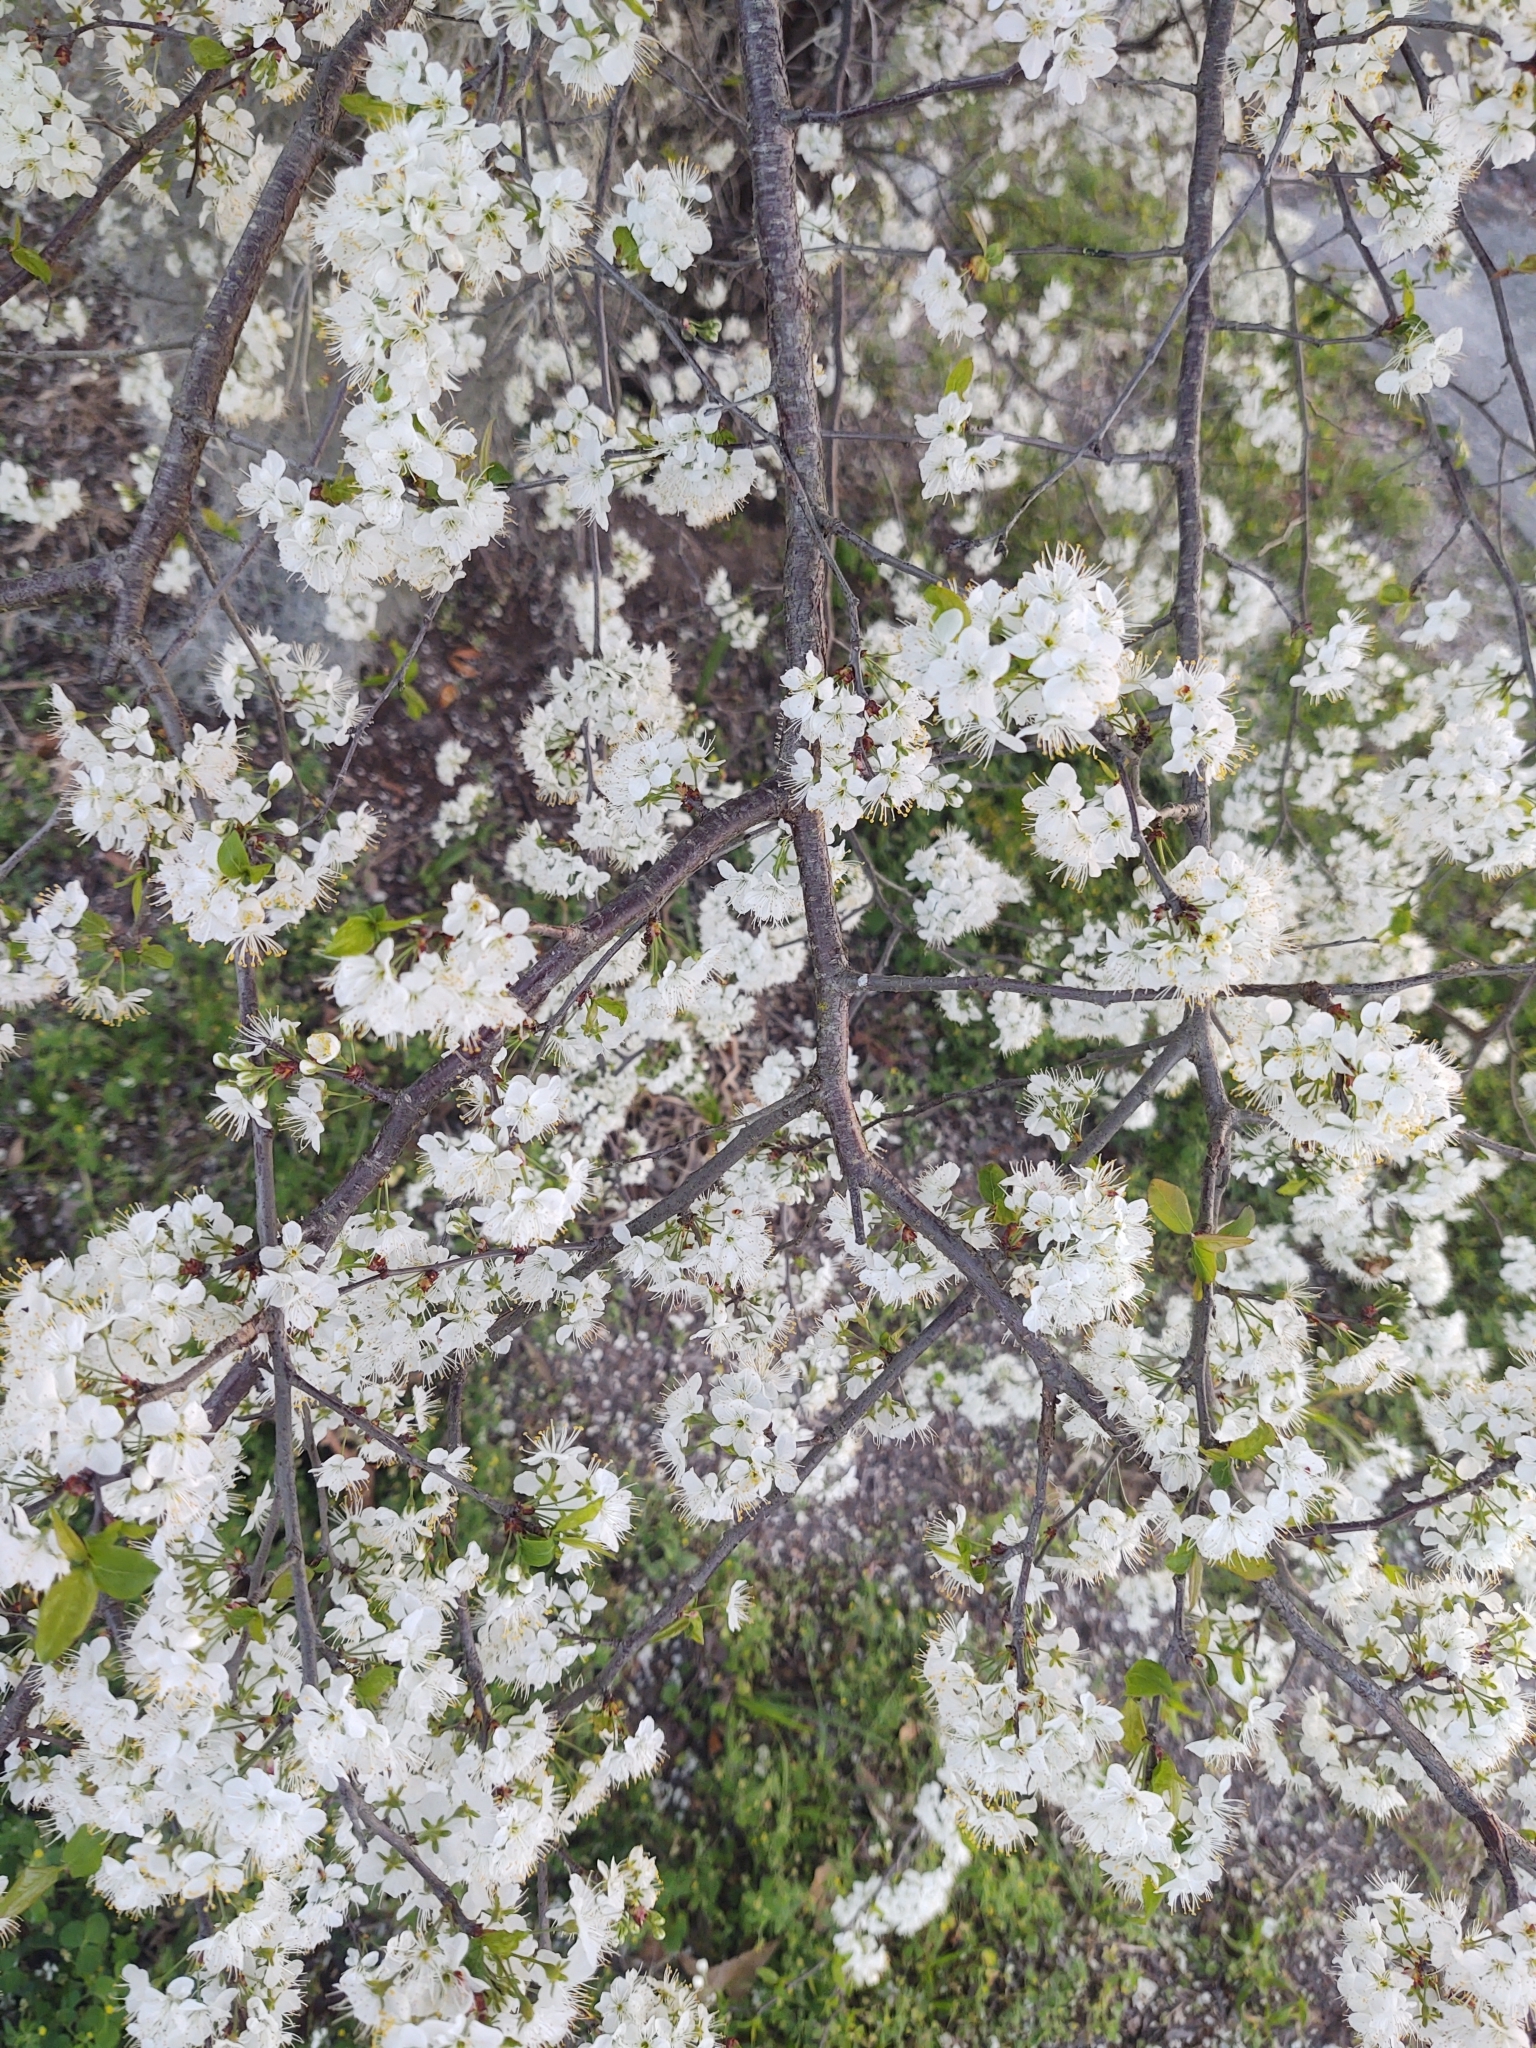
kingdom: Plantae
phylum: Tracheophyta
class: Magnoliopsida
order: Rosales
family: Rosaceae
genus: Pyrus
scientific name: Pyrus calleryana
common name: Callery pear
